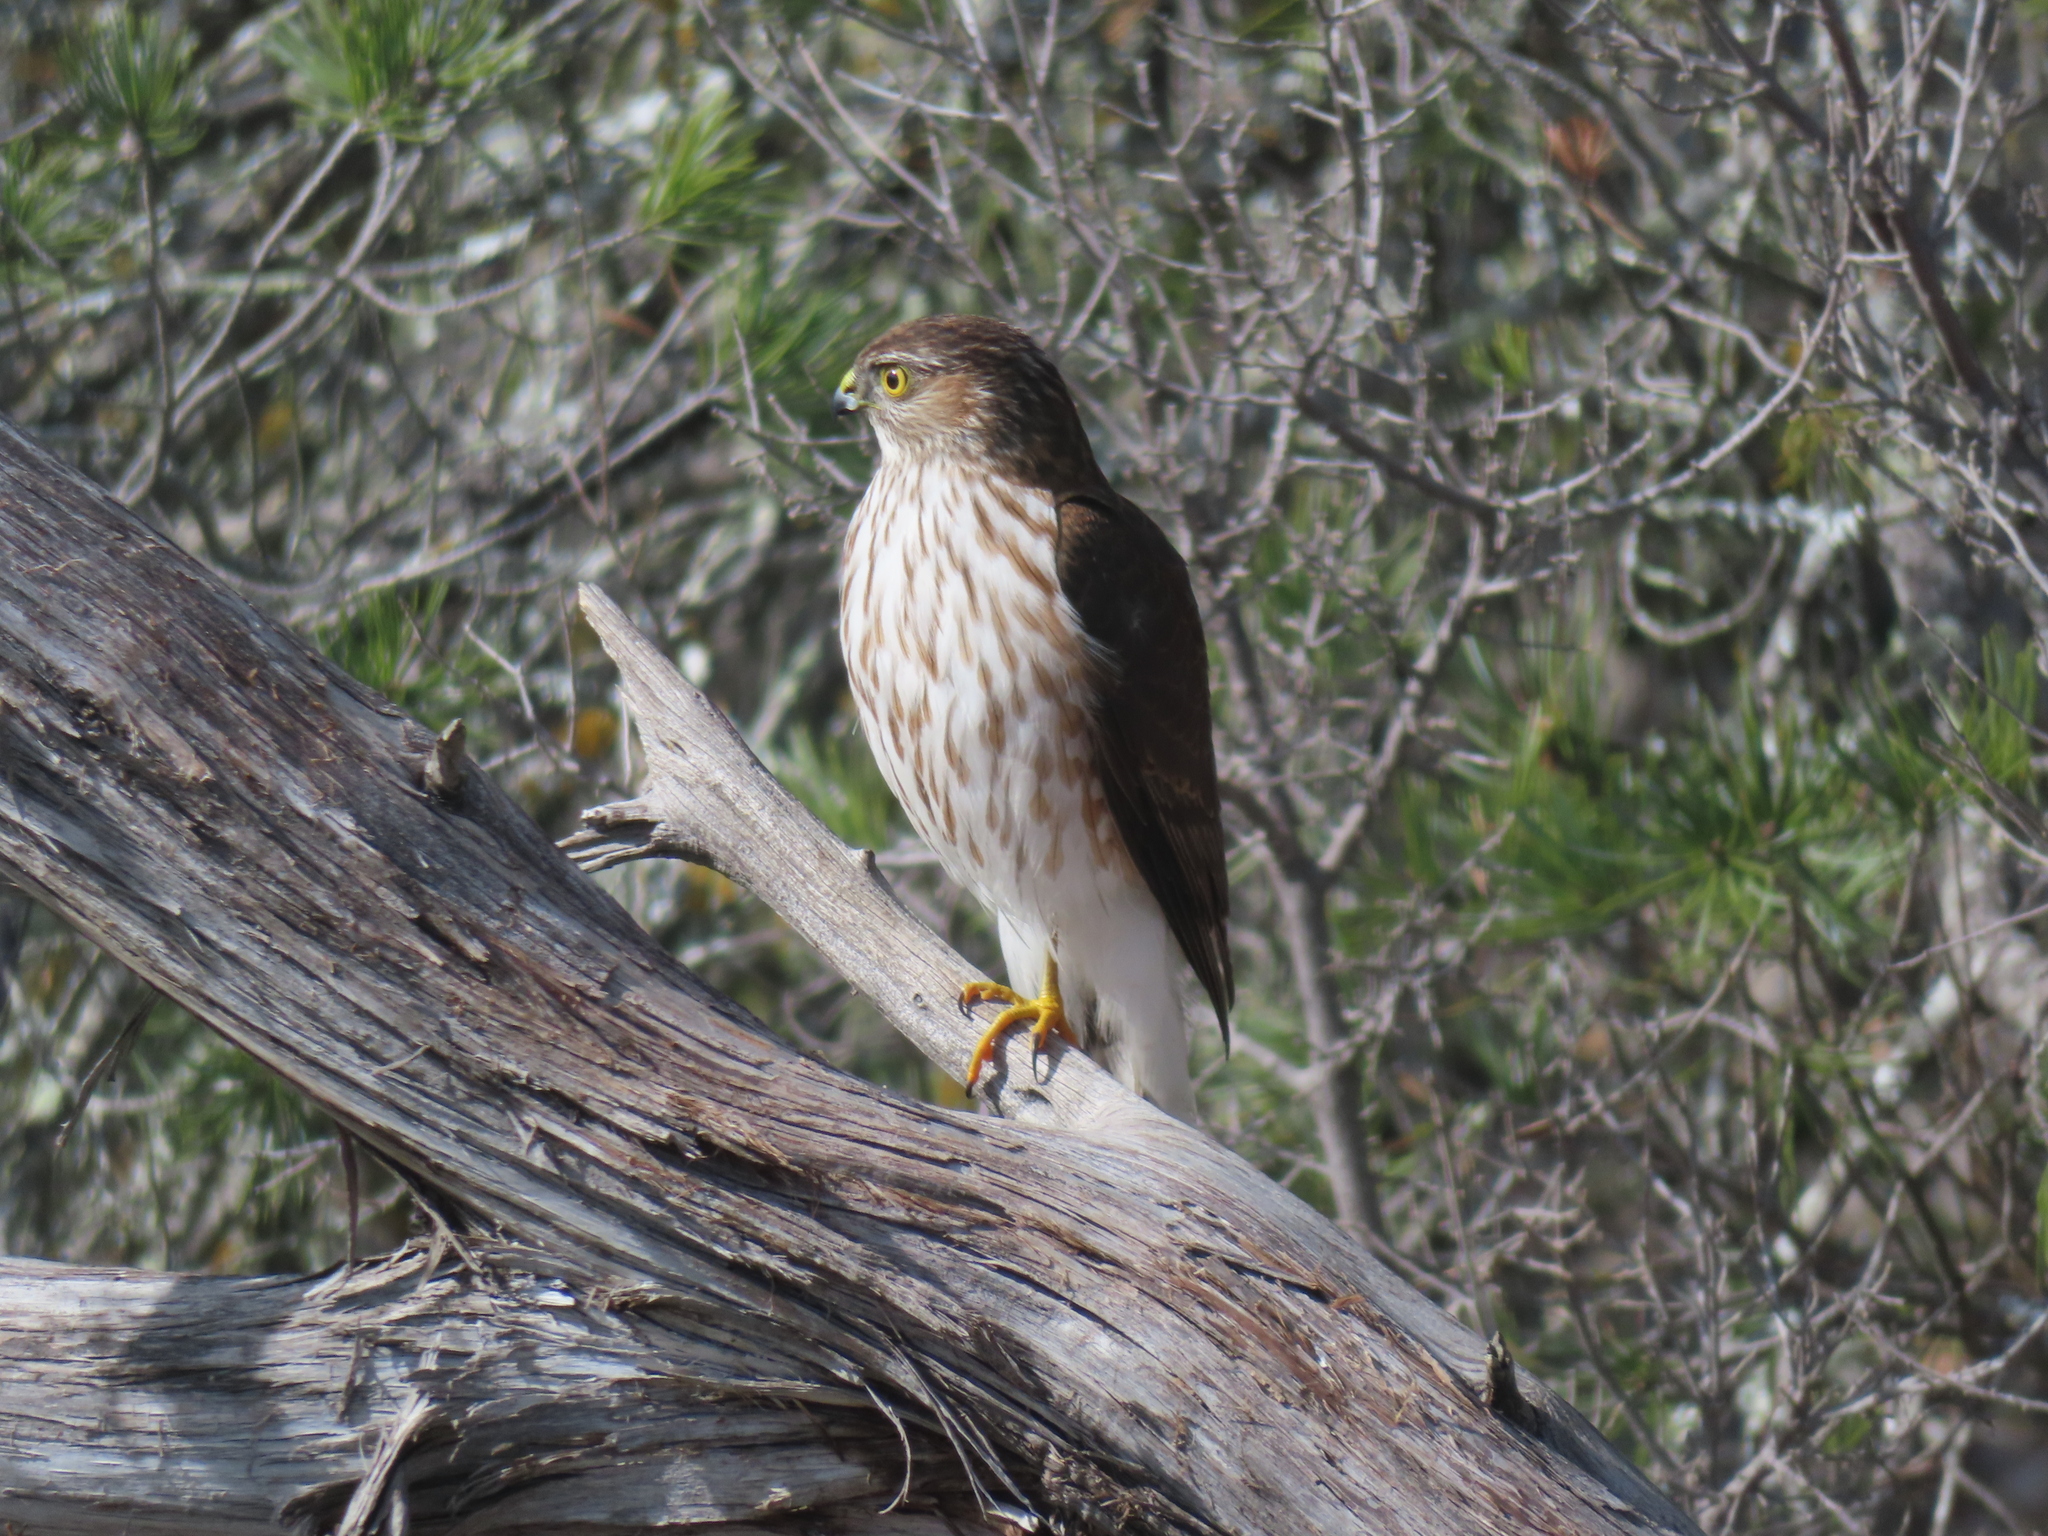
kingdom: Animalia
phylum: Chordata
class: Aves
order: Accipitriformes
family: Accipitridae
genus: Accipiter
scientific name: Accipiter striatus
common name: Sharp-shinned hawk
